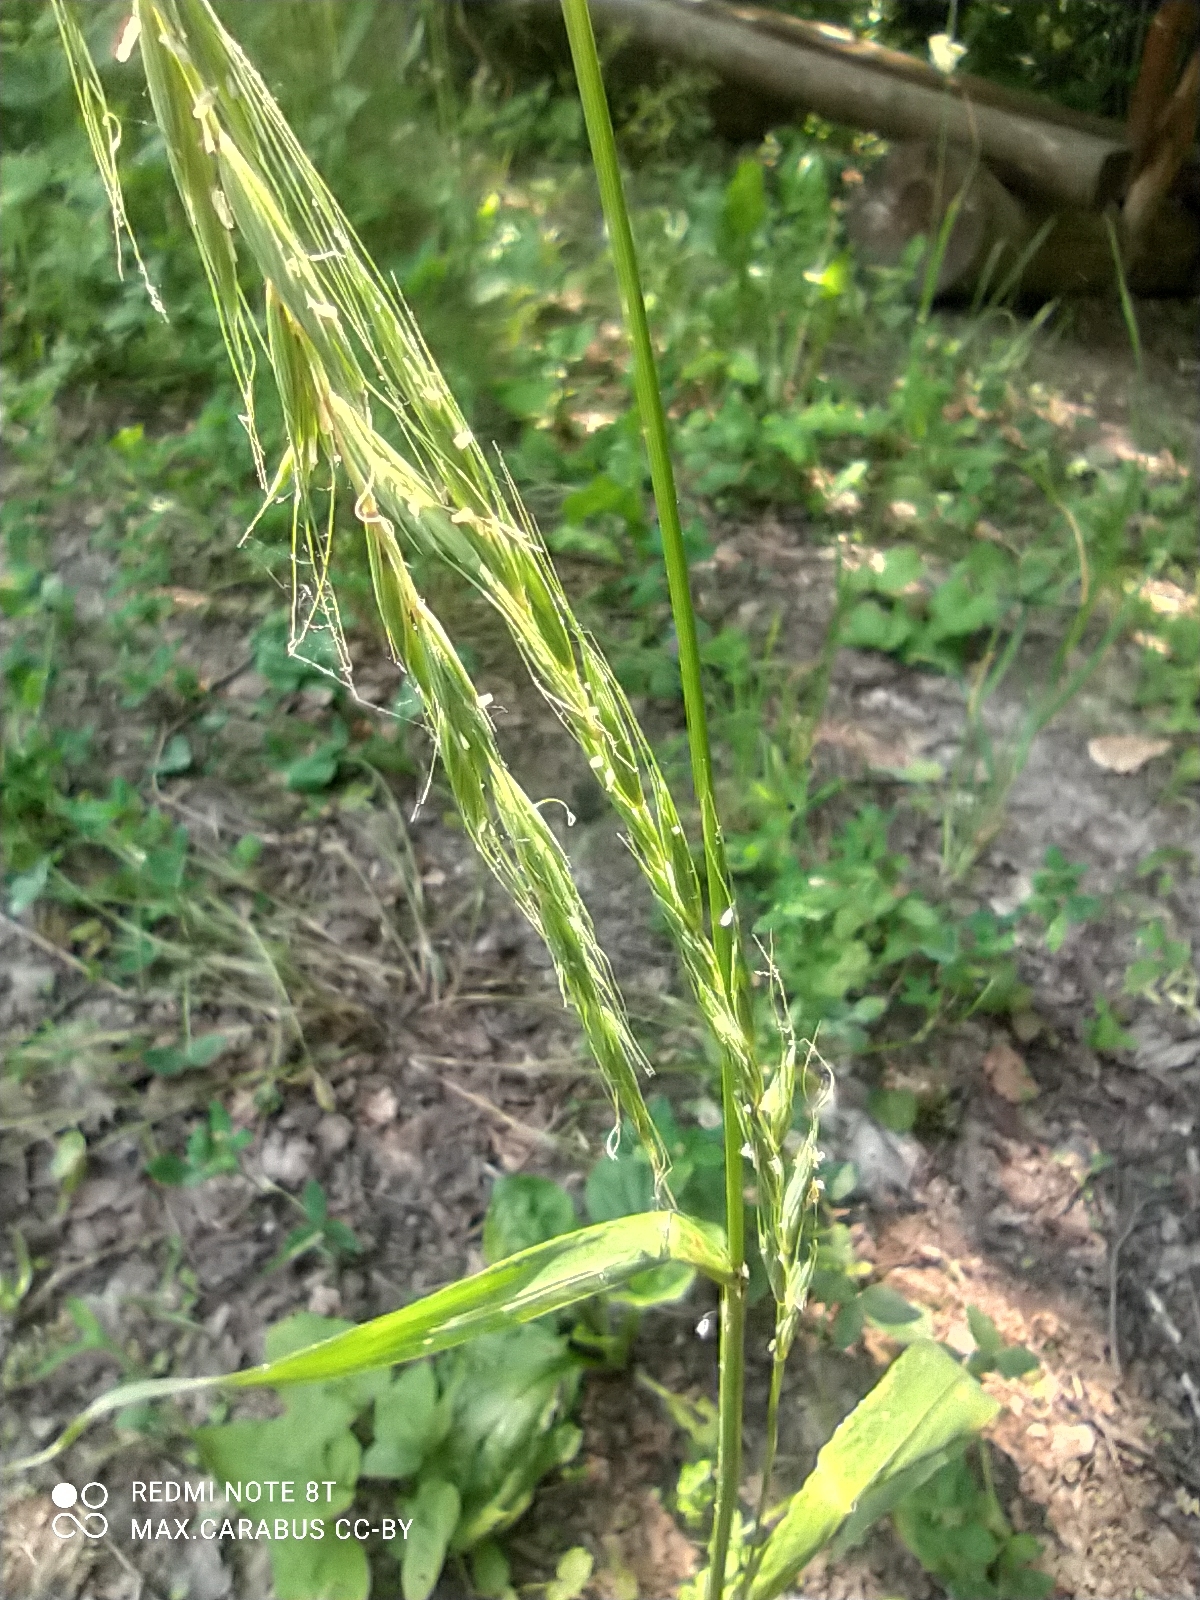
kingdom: Plantae
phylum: Tracheophyta
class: Liliopsida
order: Poales
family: Poaceae
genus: Elymus
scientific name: Elymus caninus
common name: Bearded couch
